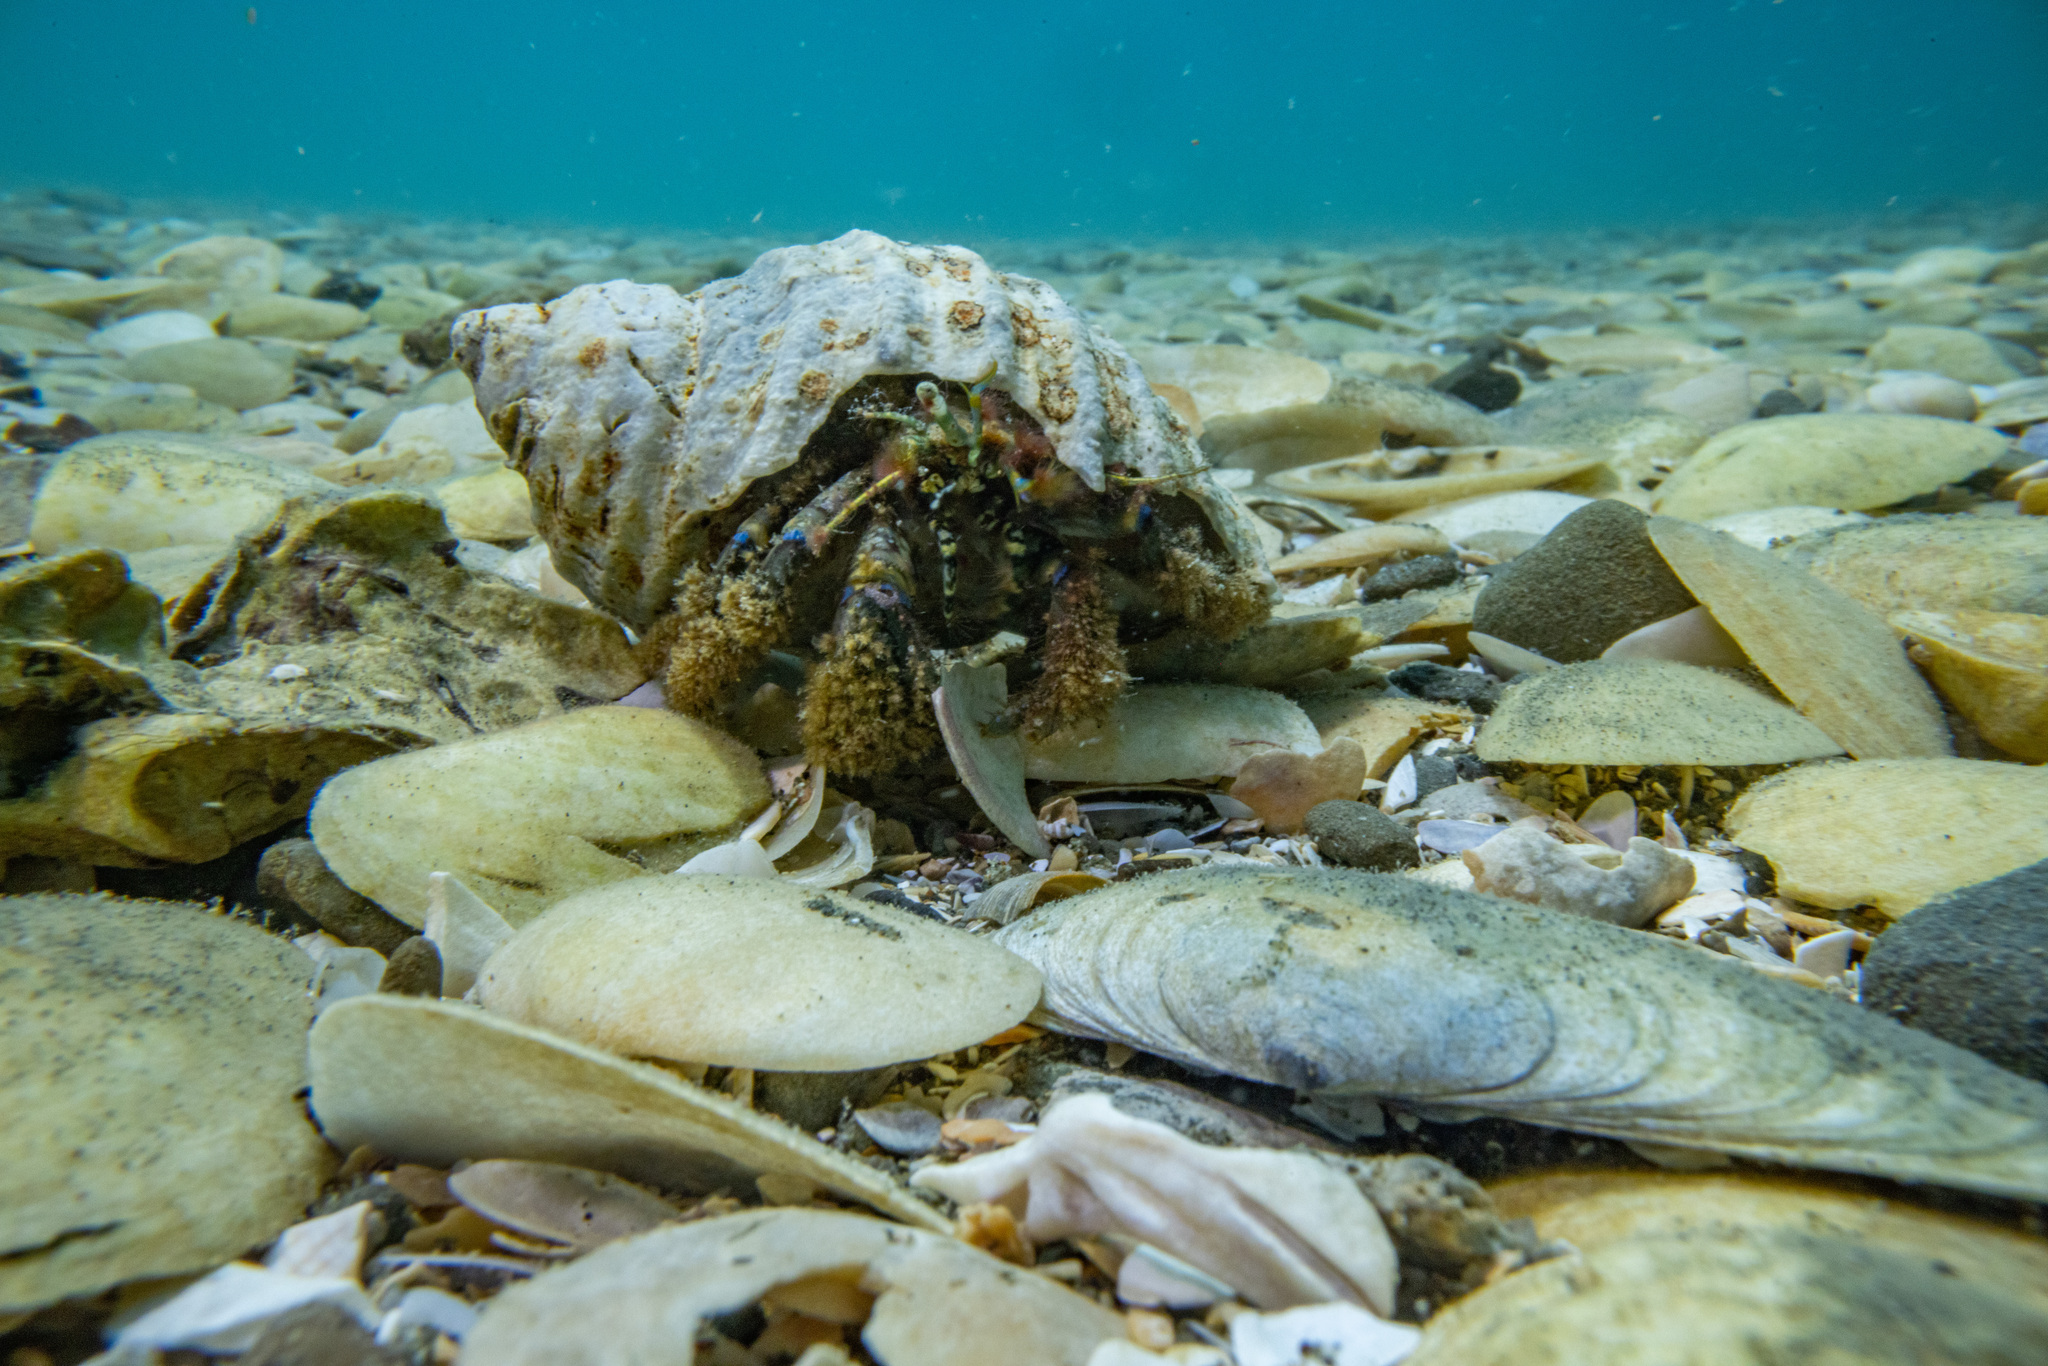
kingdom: Animalia
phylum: Arthropoda
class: Malacostraca
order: Decapoda
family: Paguridae
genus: Pagurus
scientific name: Pagurus novizealandiae
